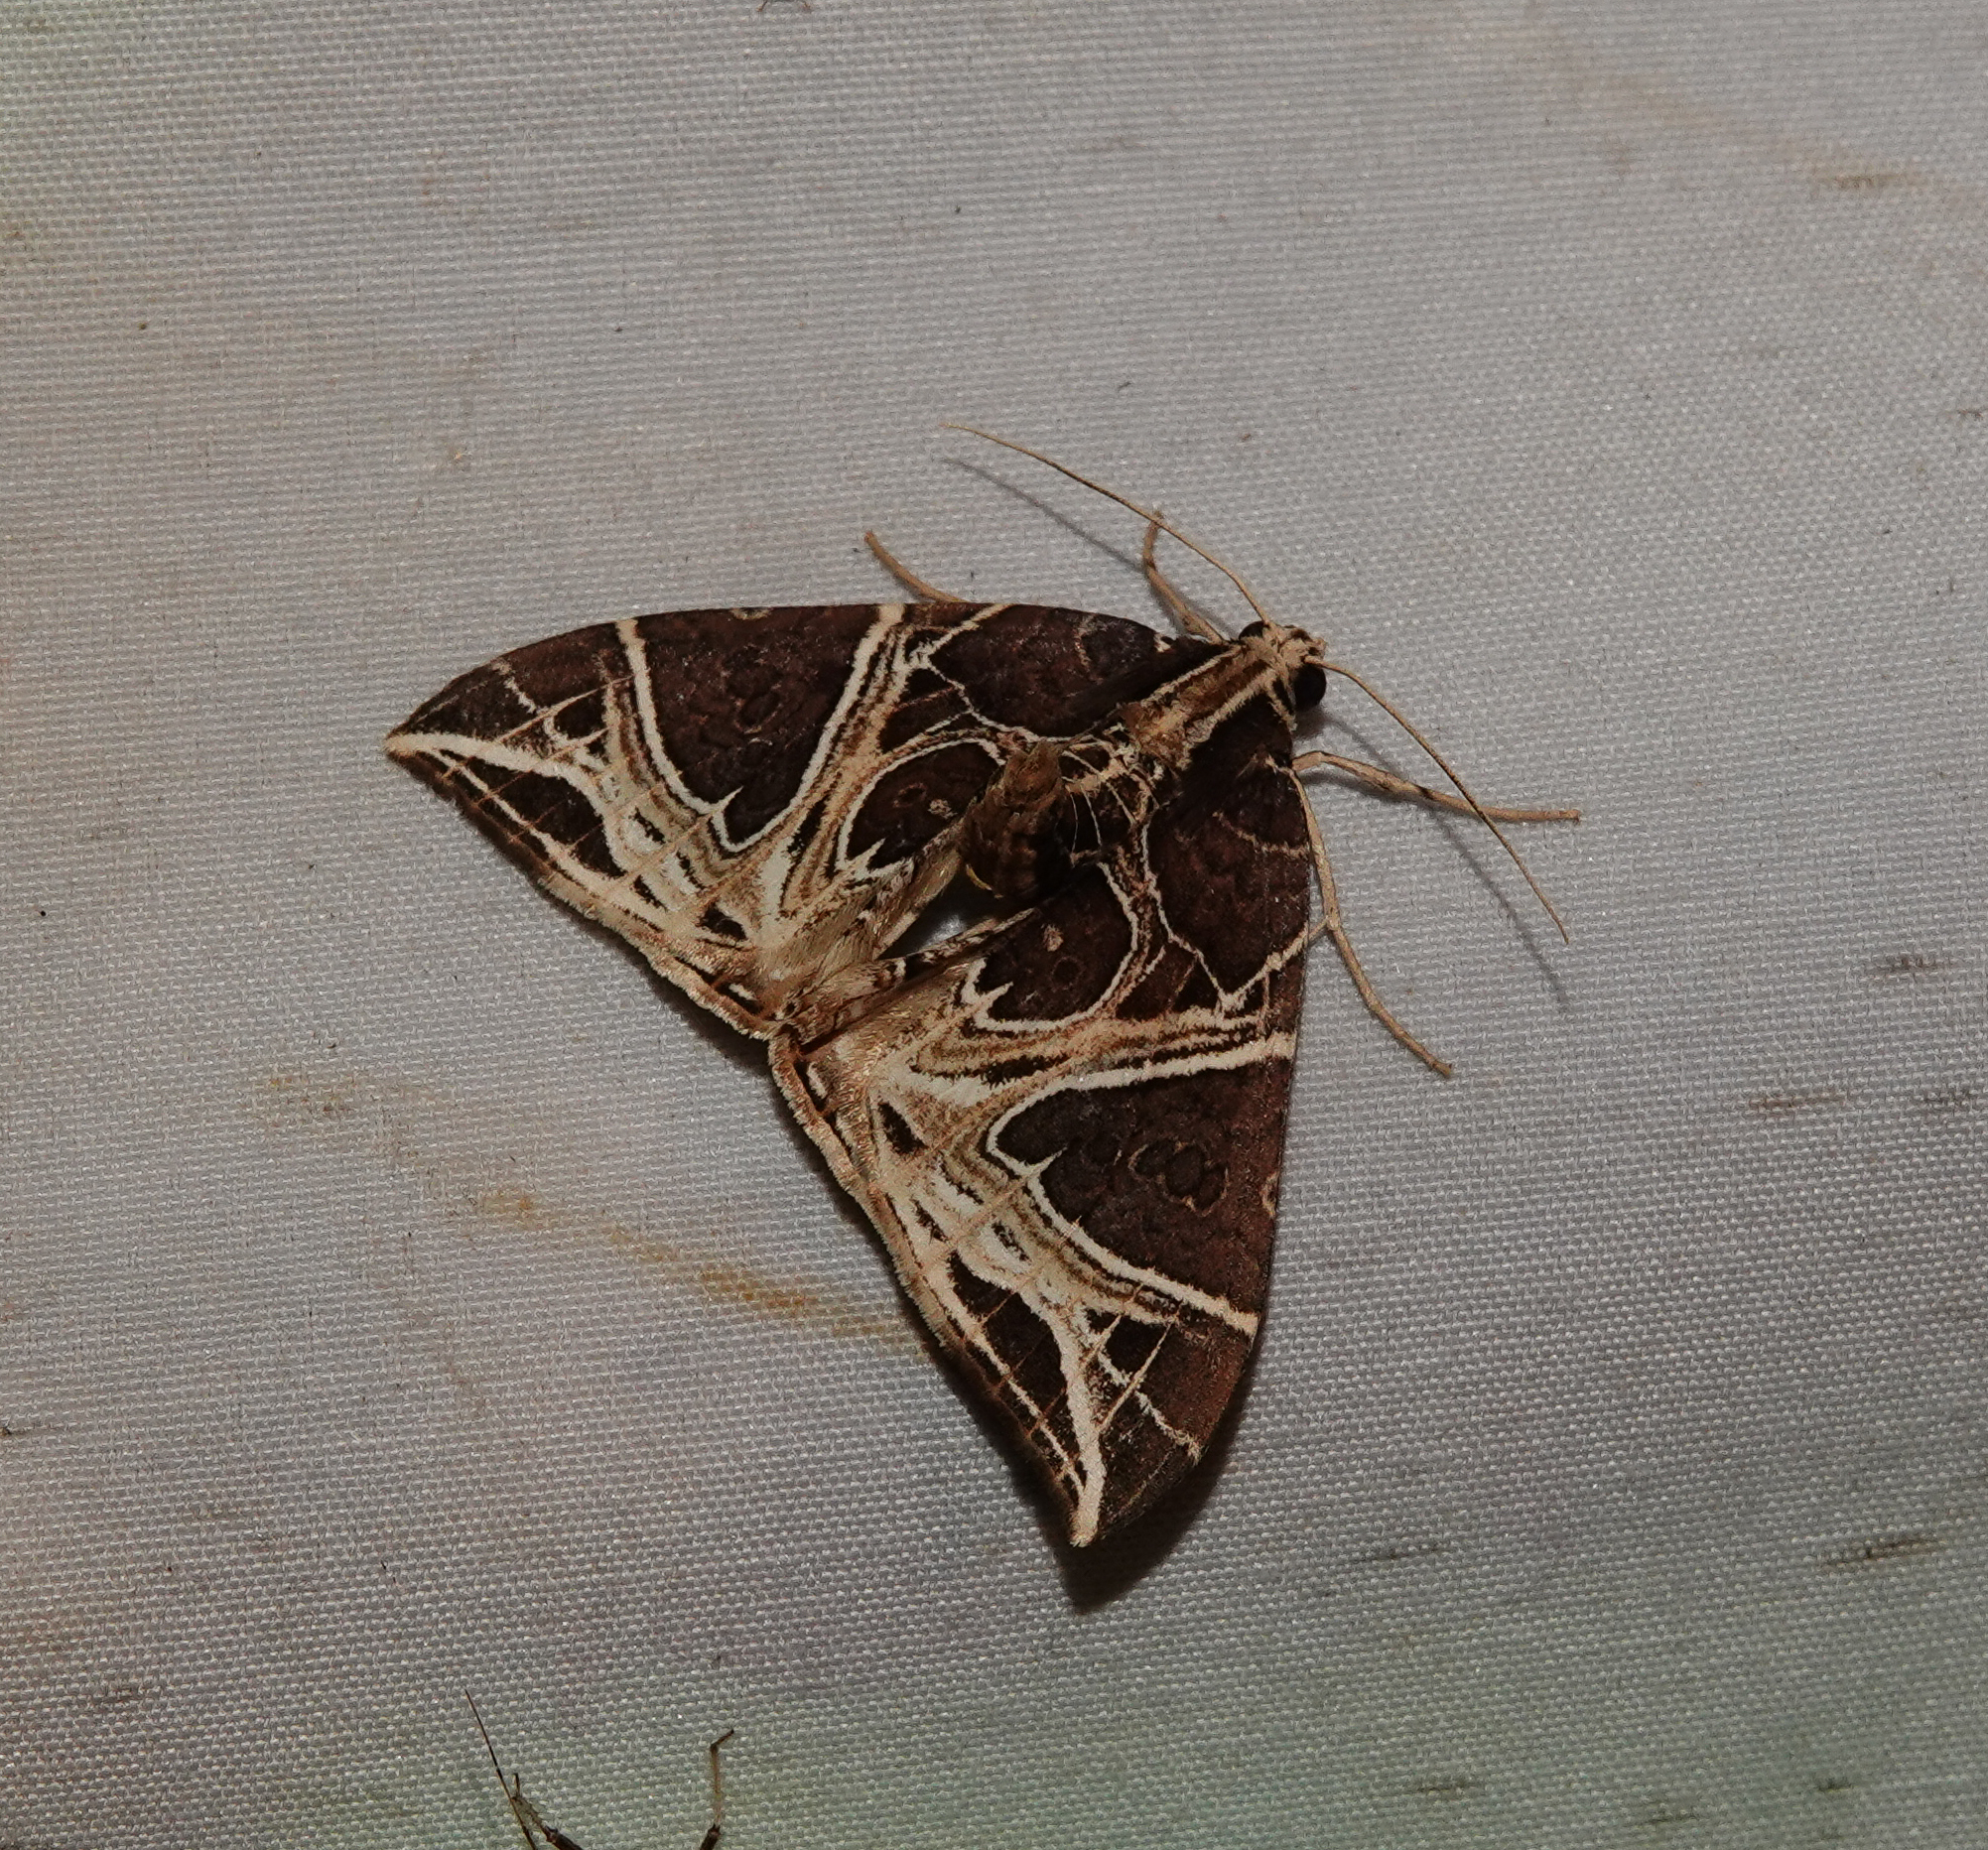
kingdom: Animalia
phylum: Arthropoda
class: Insecta
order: Lepidoptera
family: Geometridae
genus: Ecliptopera
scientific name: Ecliptopera rectilinea
